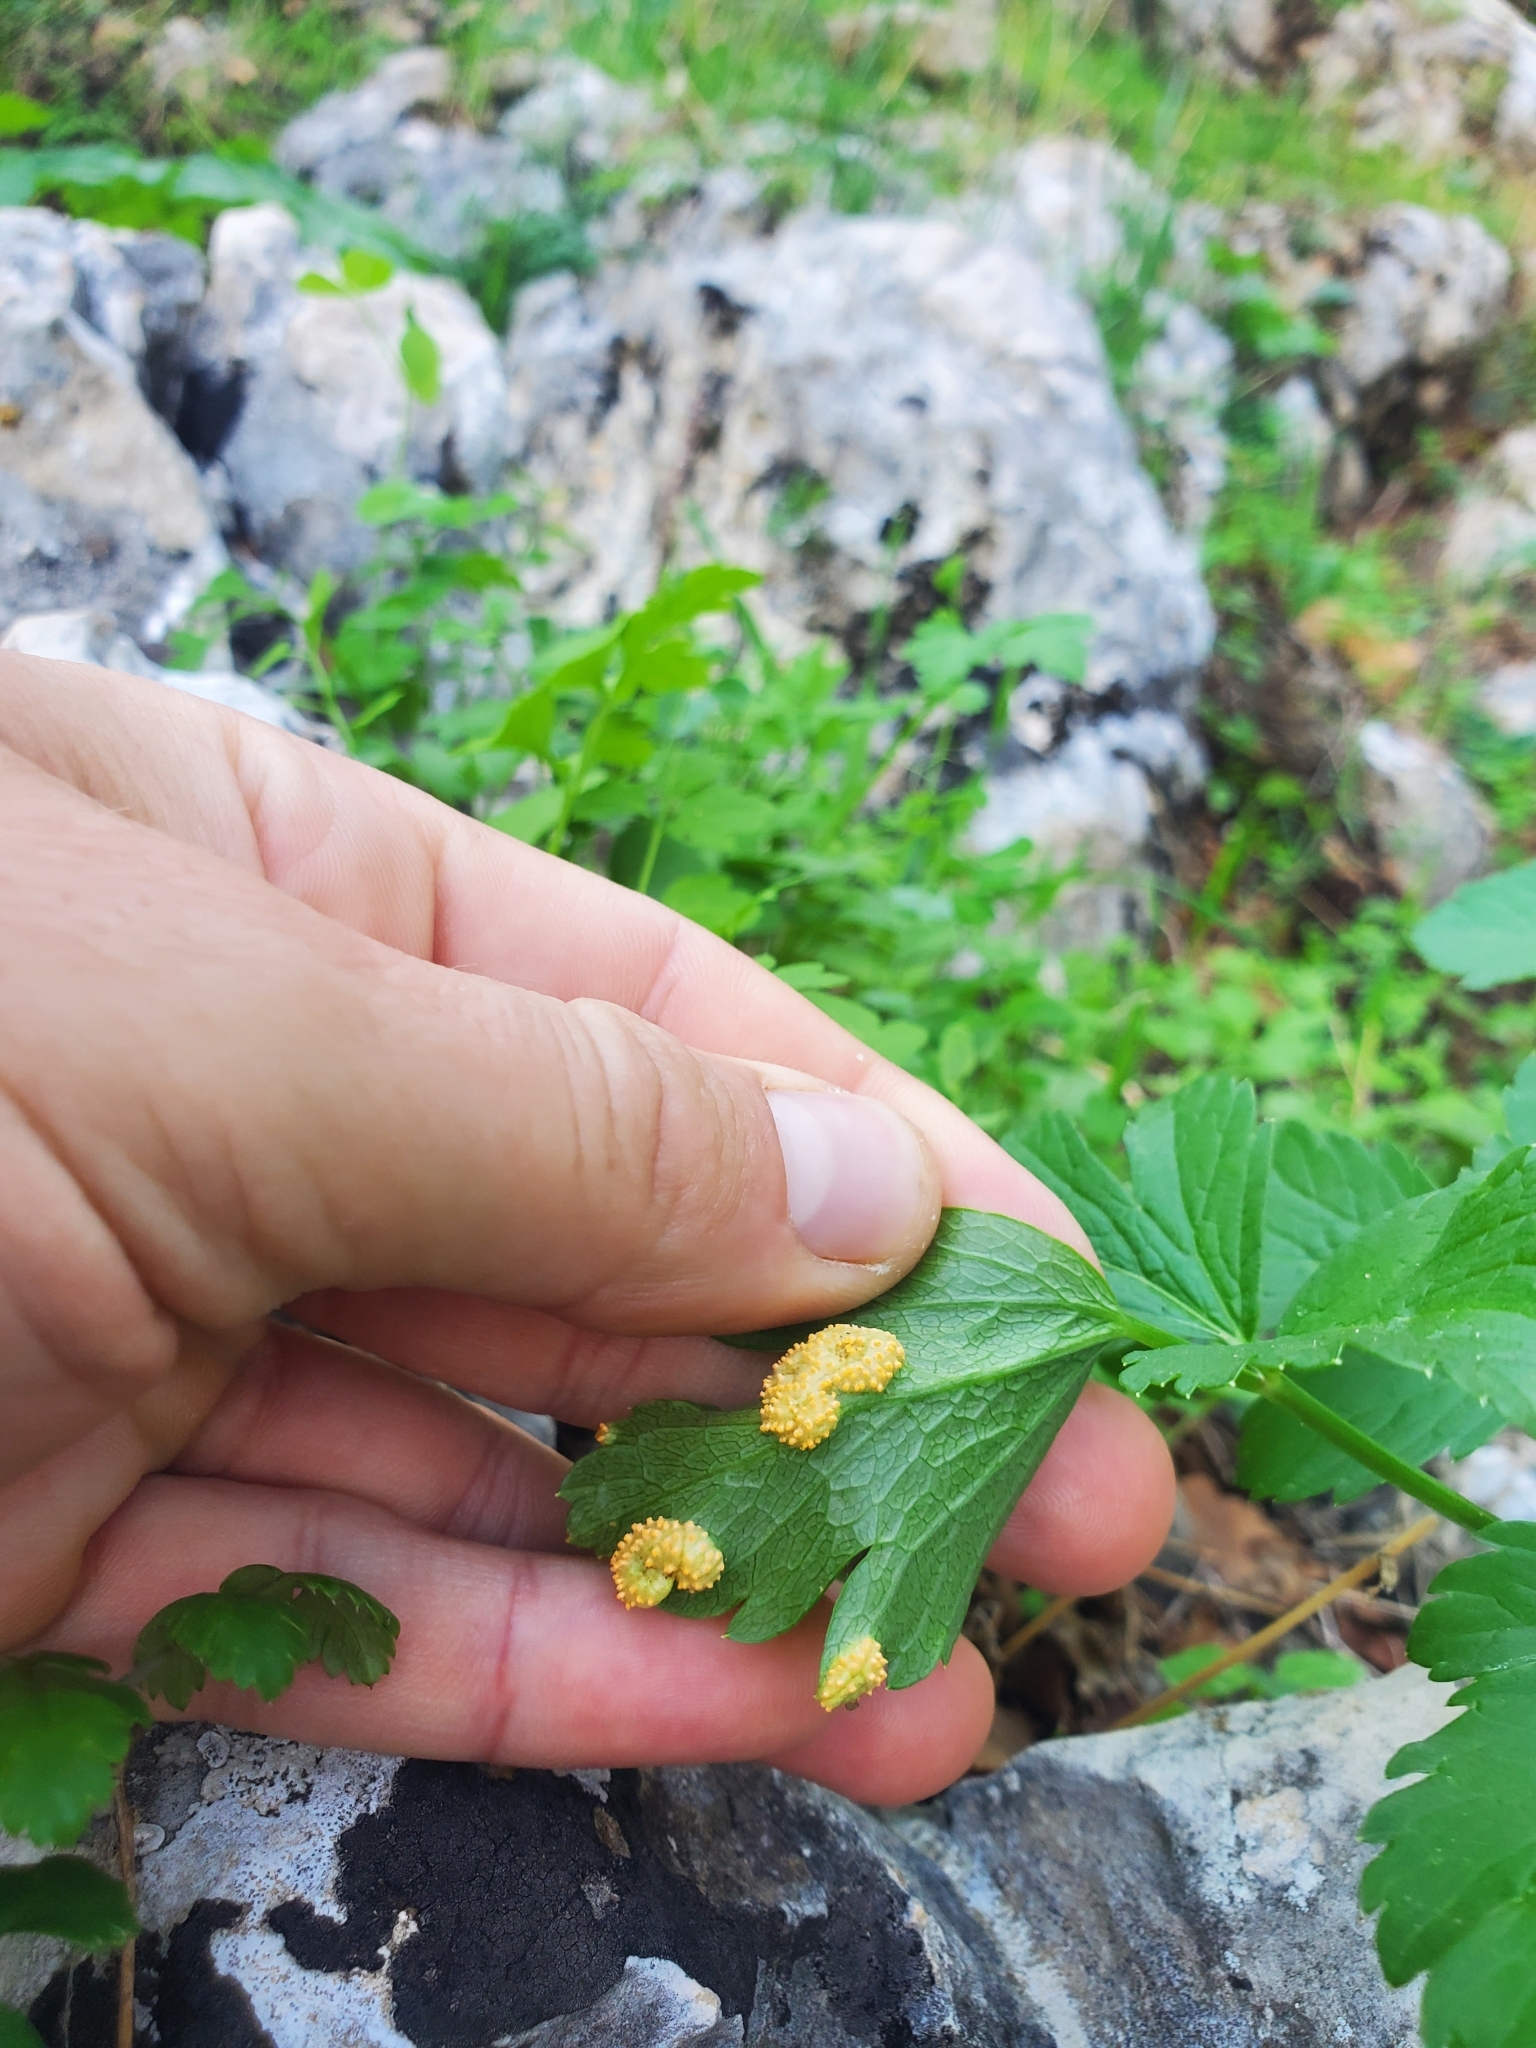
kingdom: Fungi
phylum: Basidiomycota
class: Pucciniomycetes
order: Pucciniales
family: Pucciniaceae
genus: Puccinia
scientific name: Puccinia smyrnii
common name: Alexanders rust
